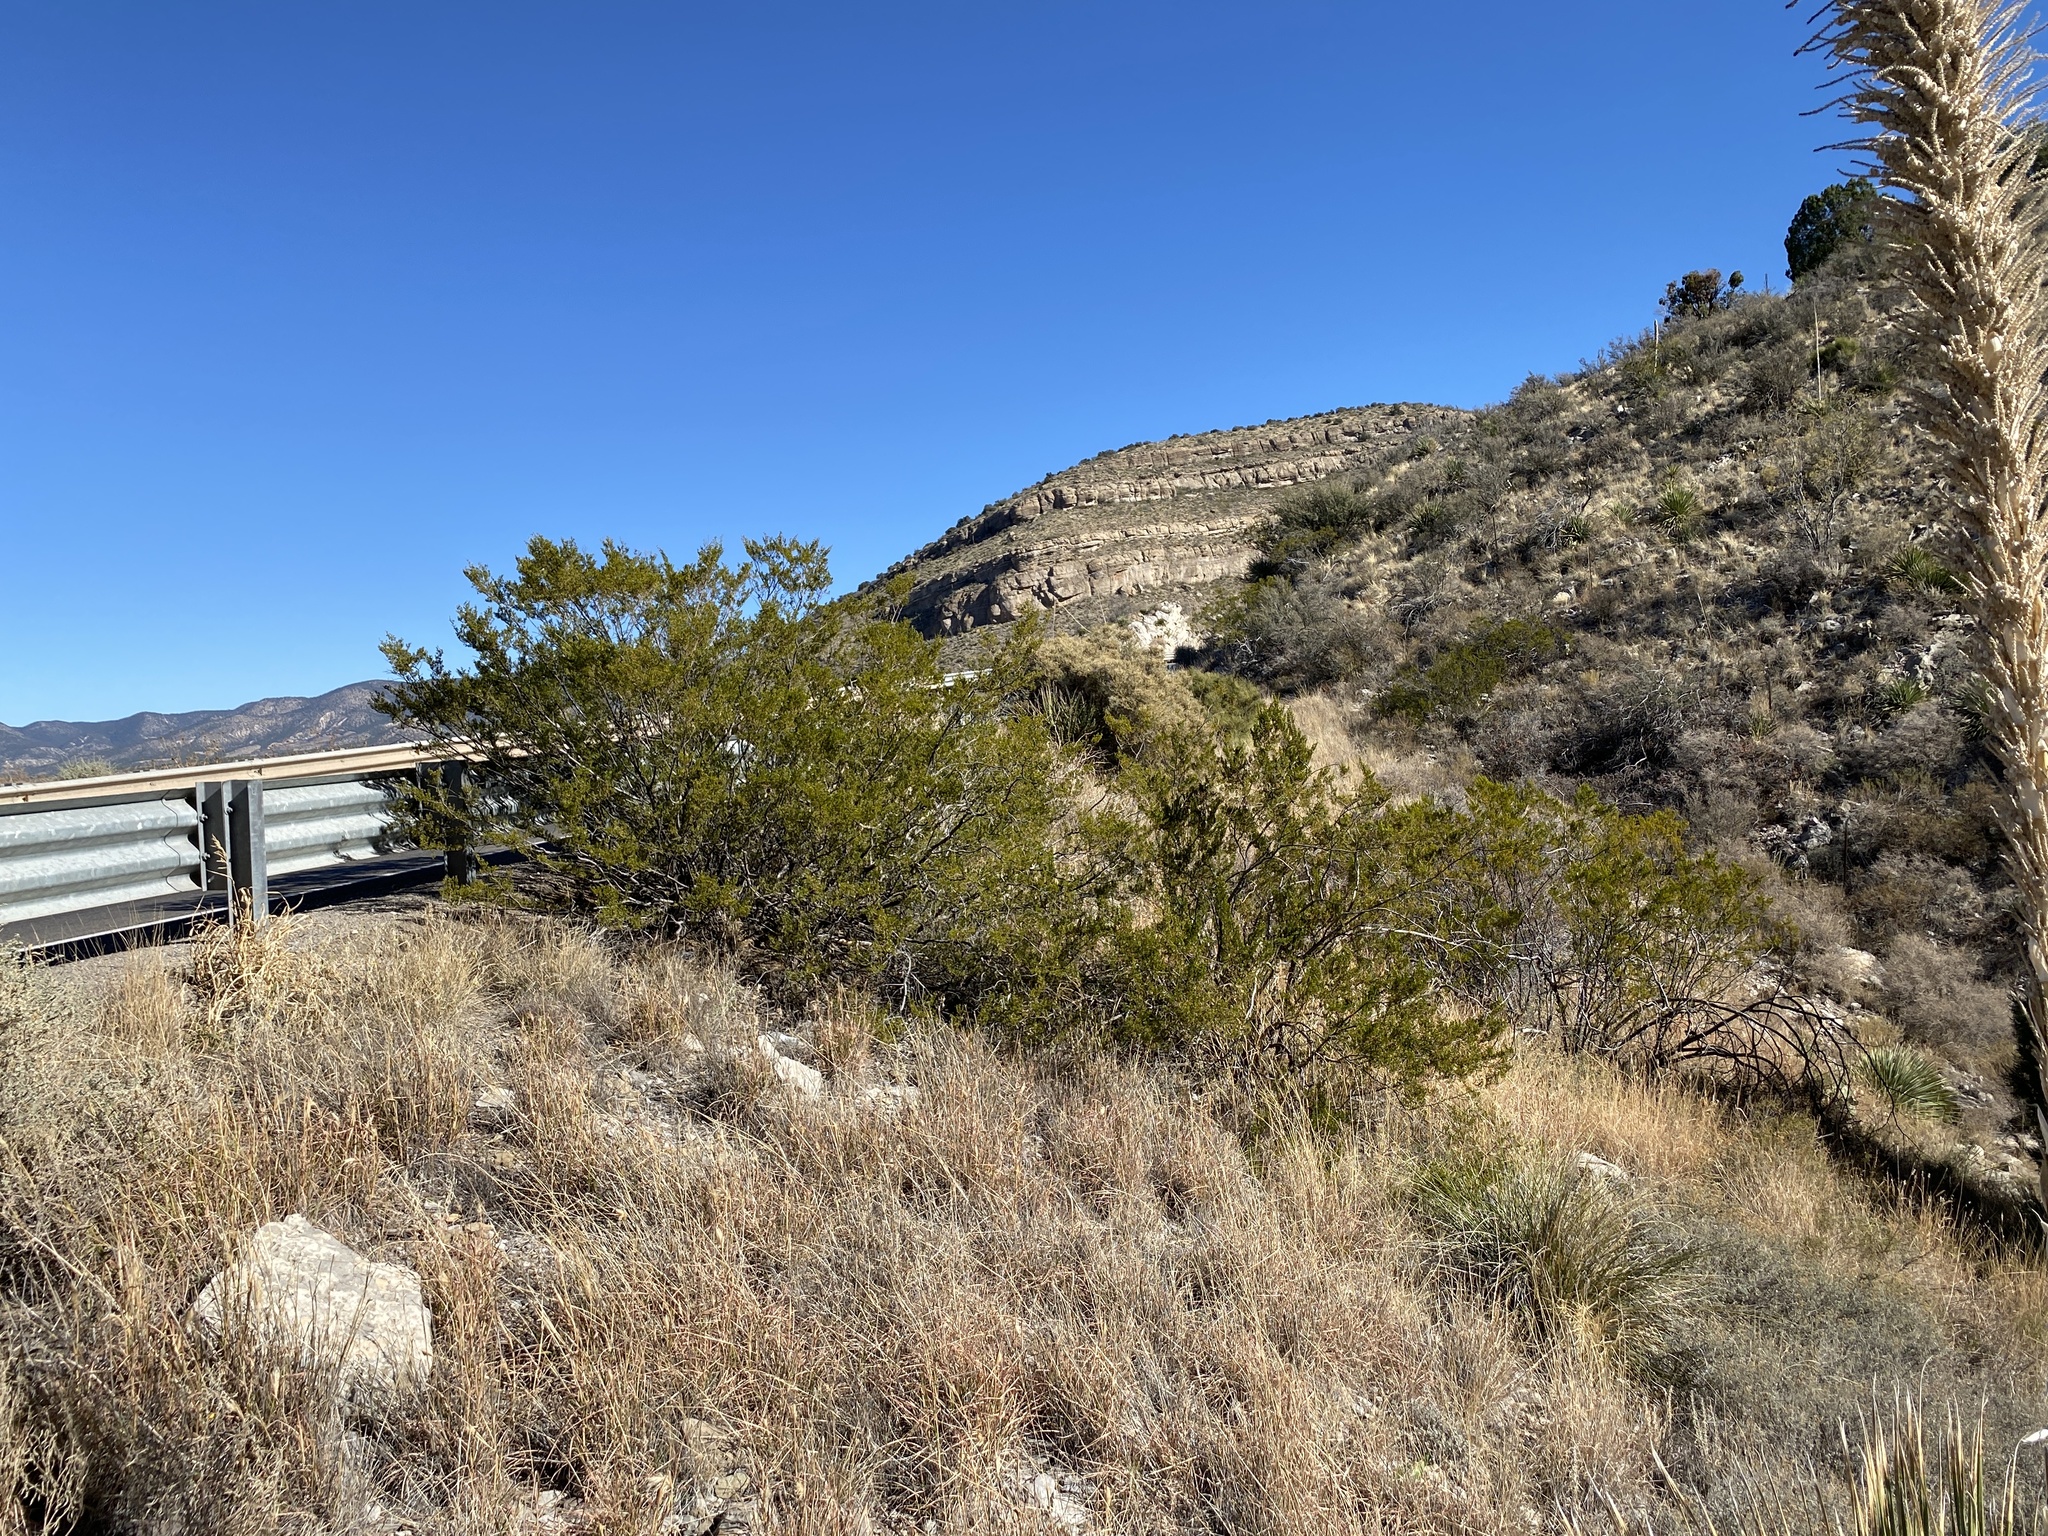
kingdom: Plantae
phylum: Tracheophyta
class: Magnoliopsida
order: Zygophyllales
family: Zygophyllaceae
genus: Larrea
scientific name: Larrea tridentata
